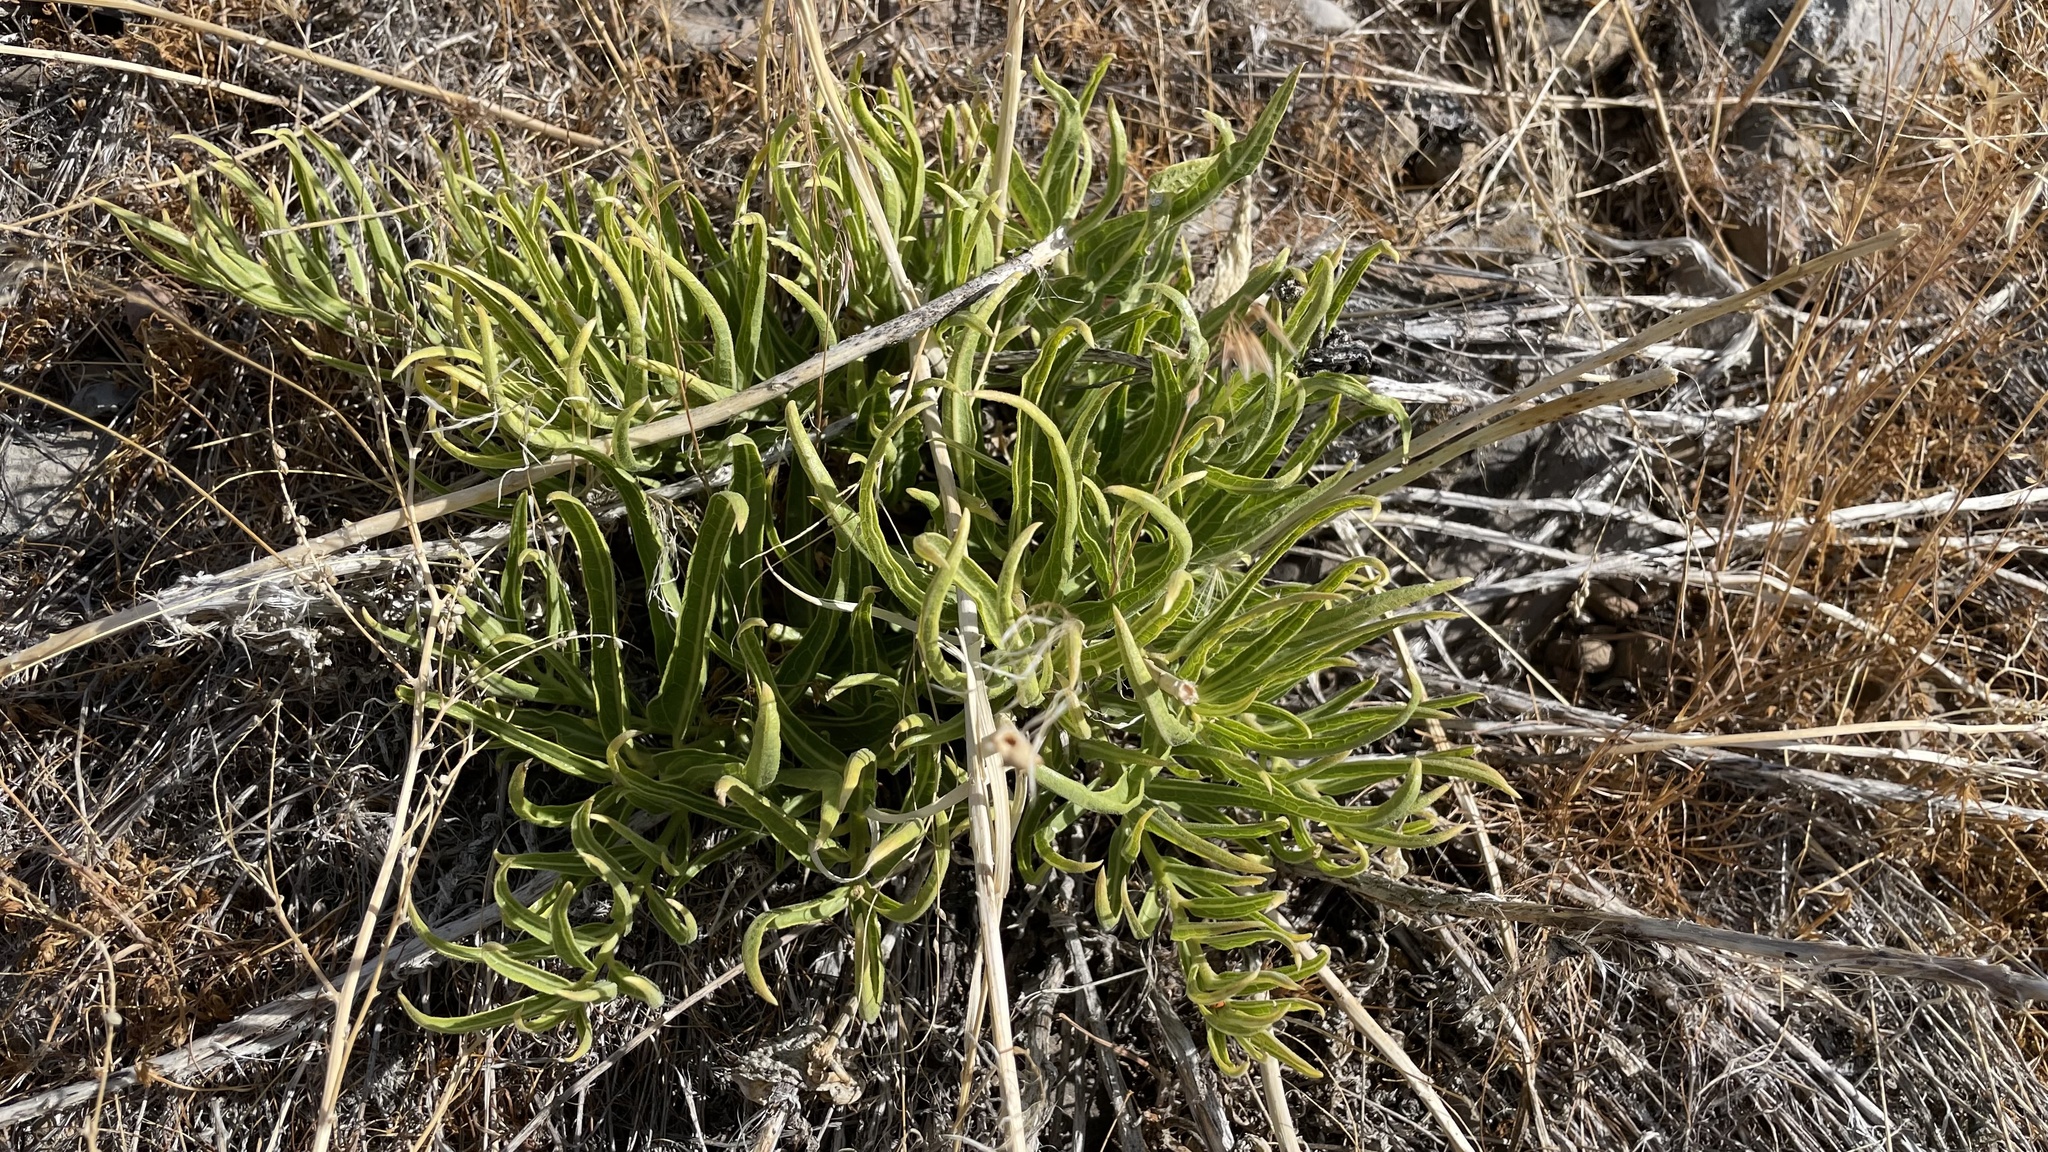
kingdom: Plantae
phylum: Tracheophyta
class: Magnoliopsida
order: Gentianales
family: Apocynaceae
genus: Asclepias
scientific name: Asclepias asperula
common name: Antelope horns
